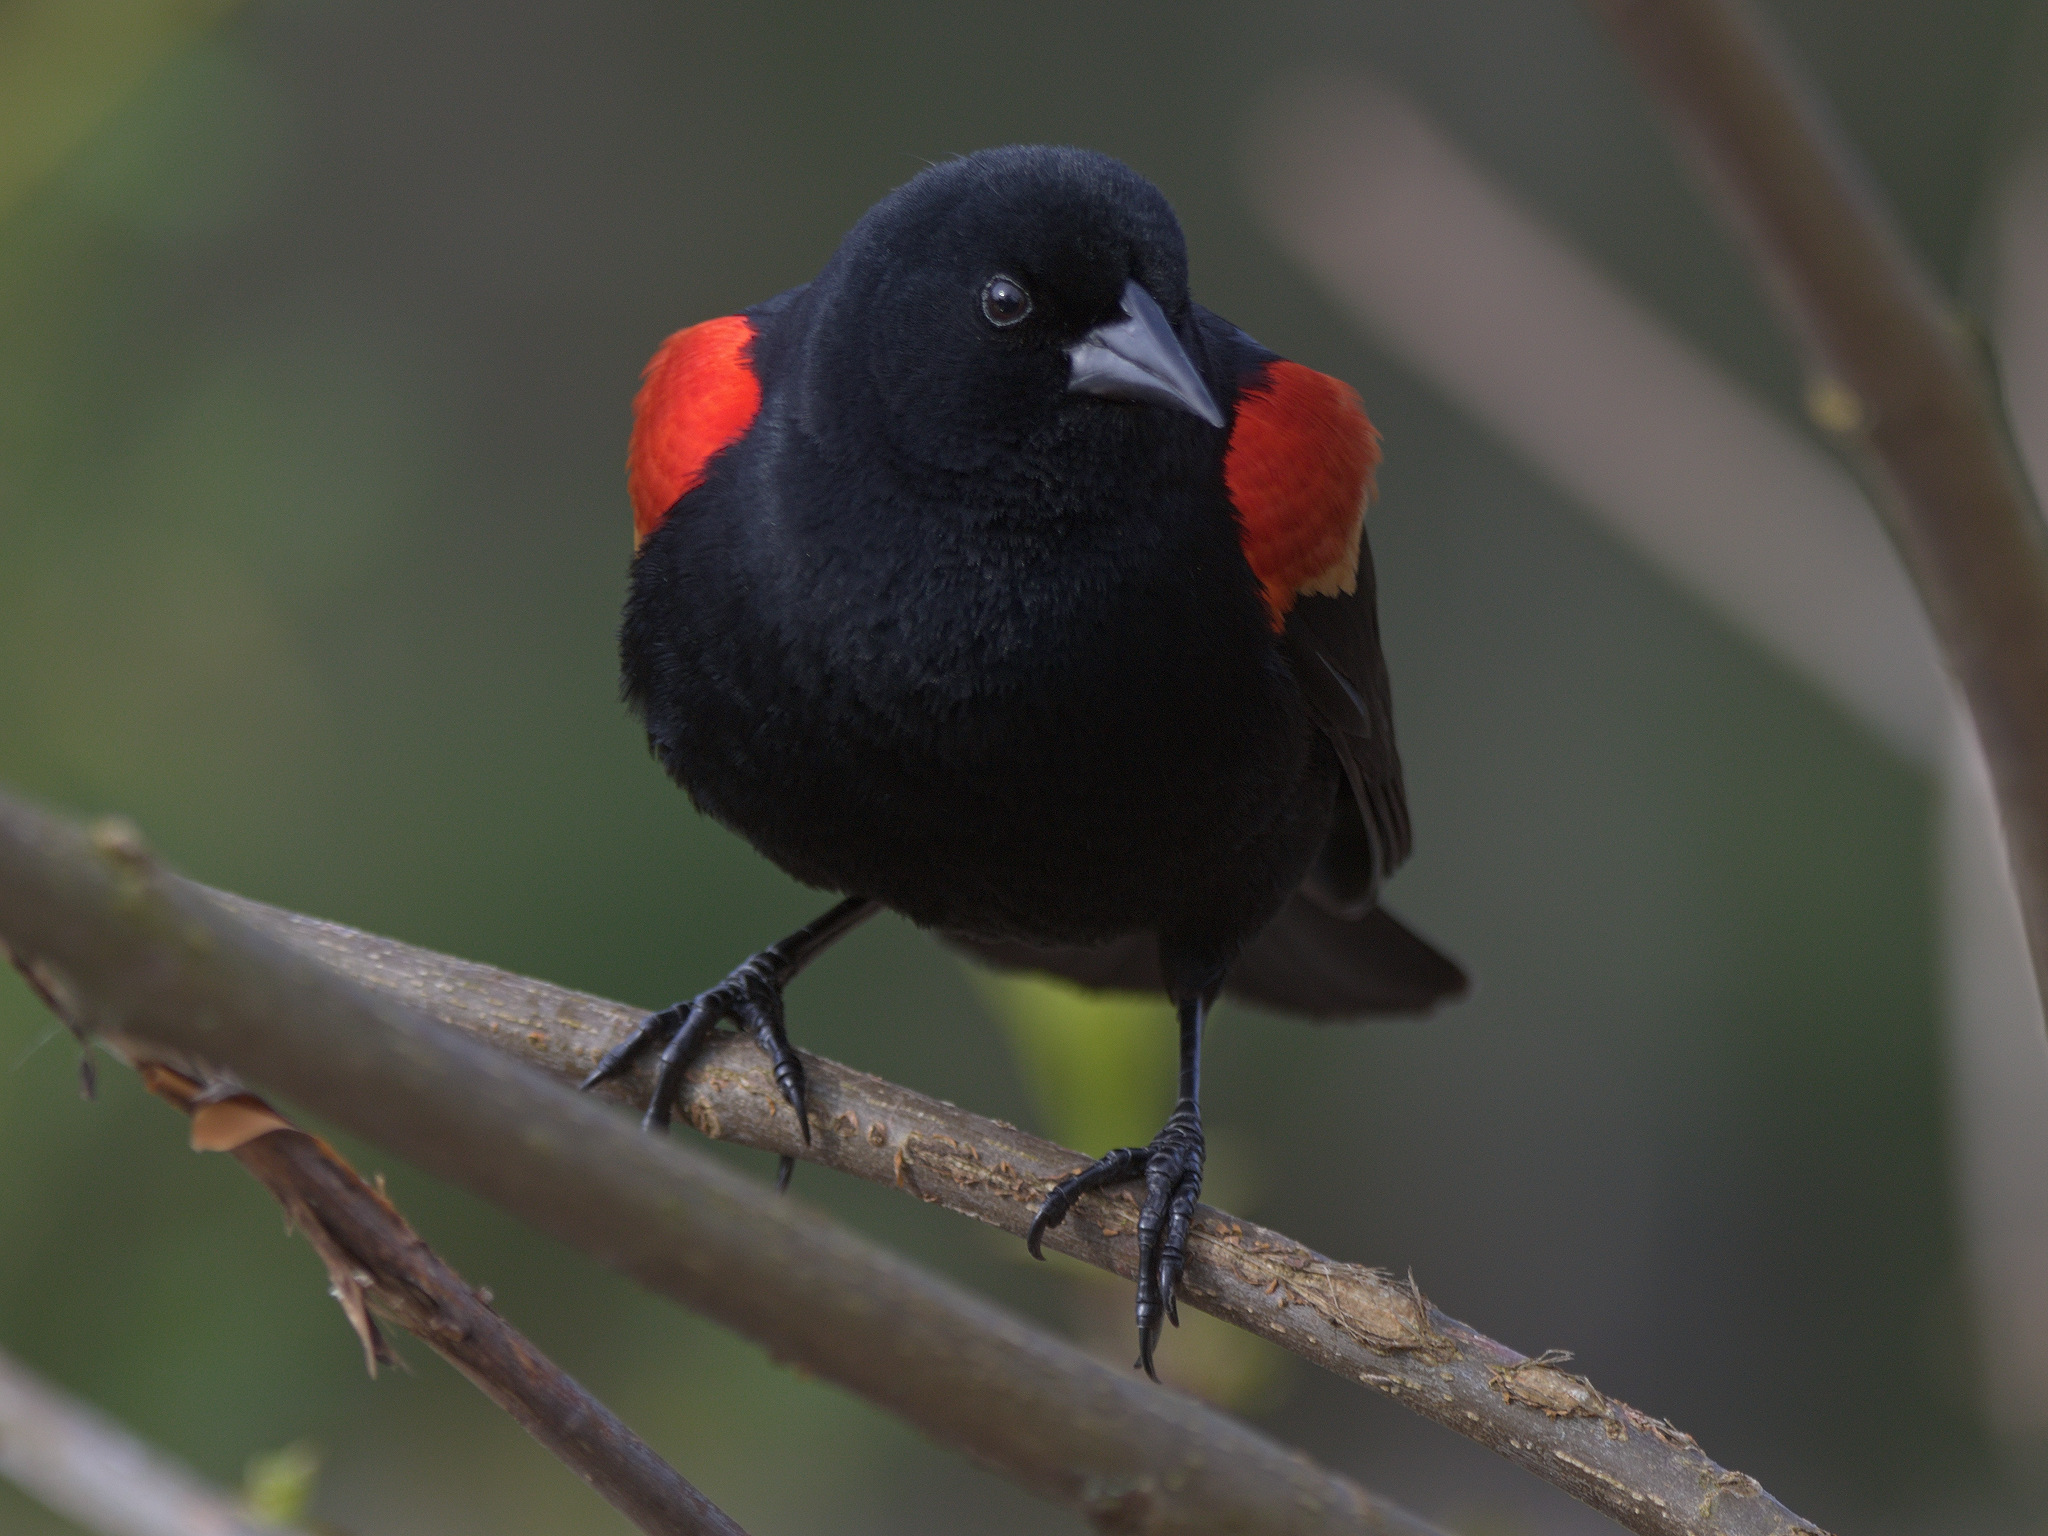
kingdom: Animalia
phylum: Chordata
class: Aves
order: Passeriformes
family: Icteridae
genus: Agelaius
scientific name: Agelaius phoeniceus
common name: Red-winged blackbird
